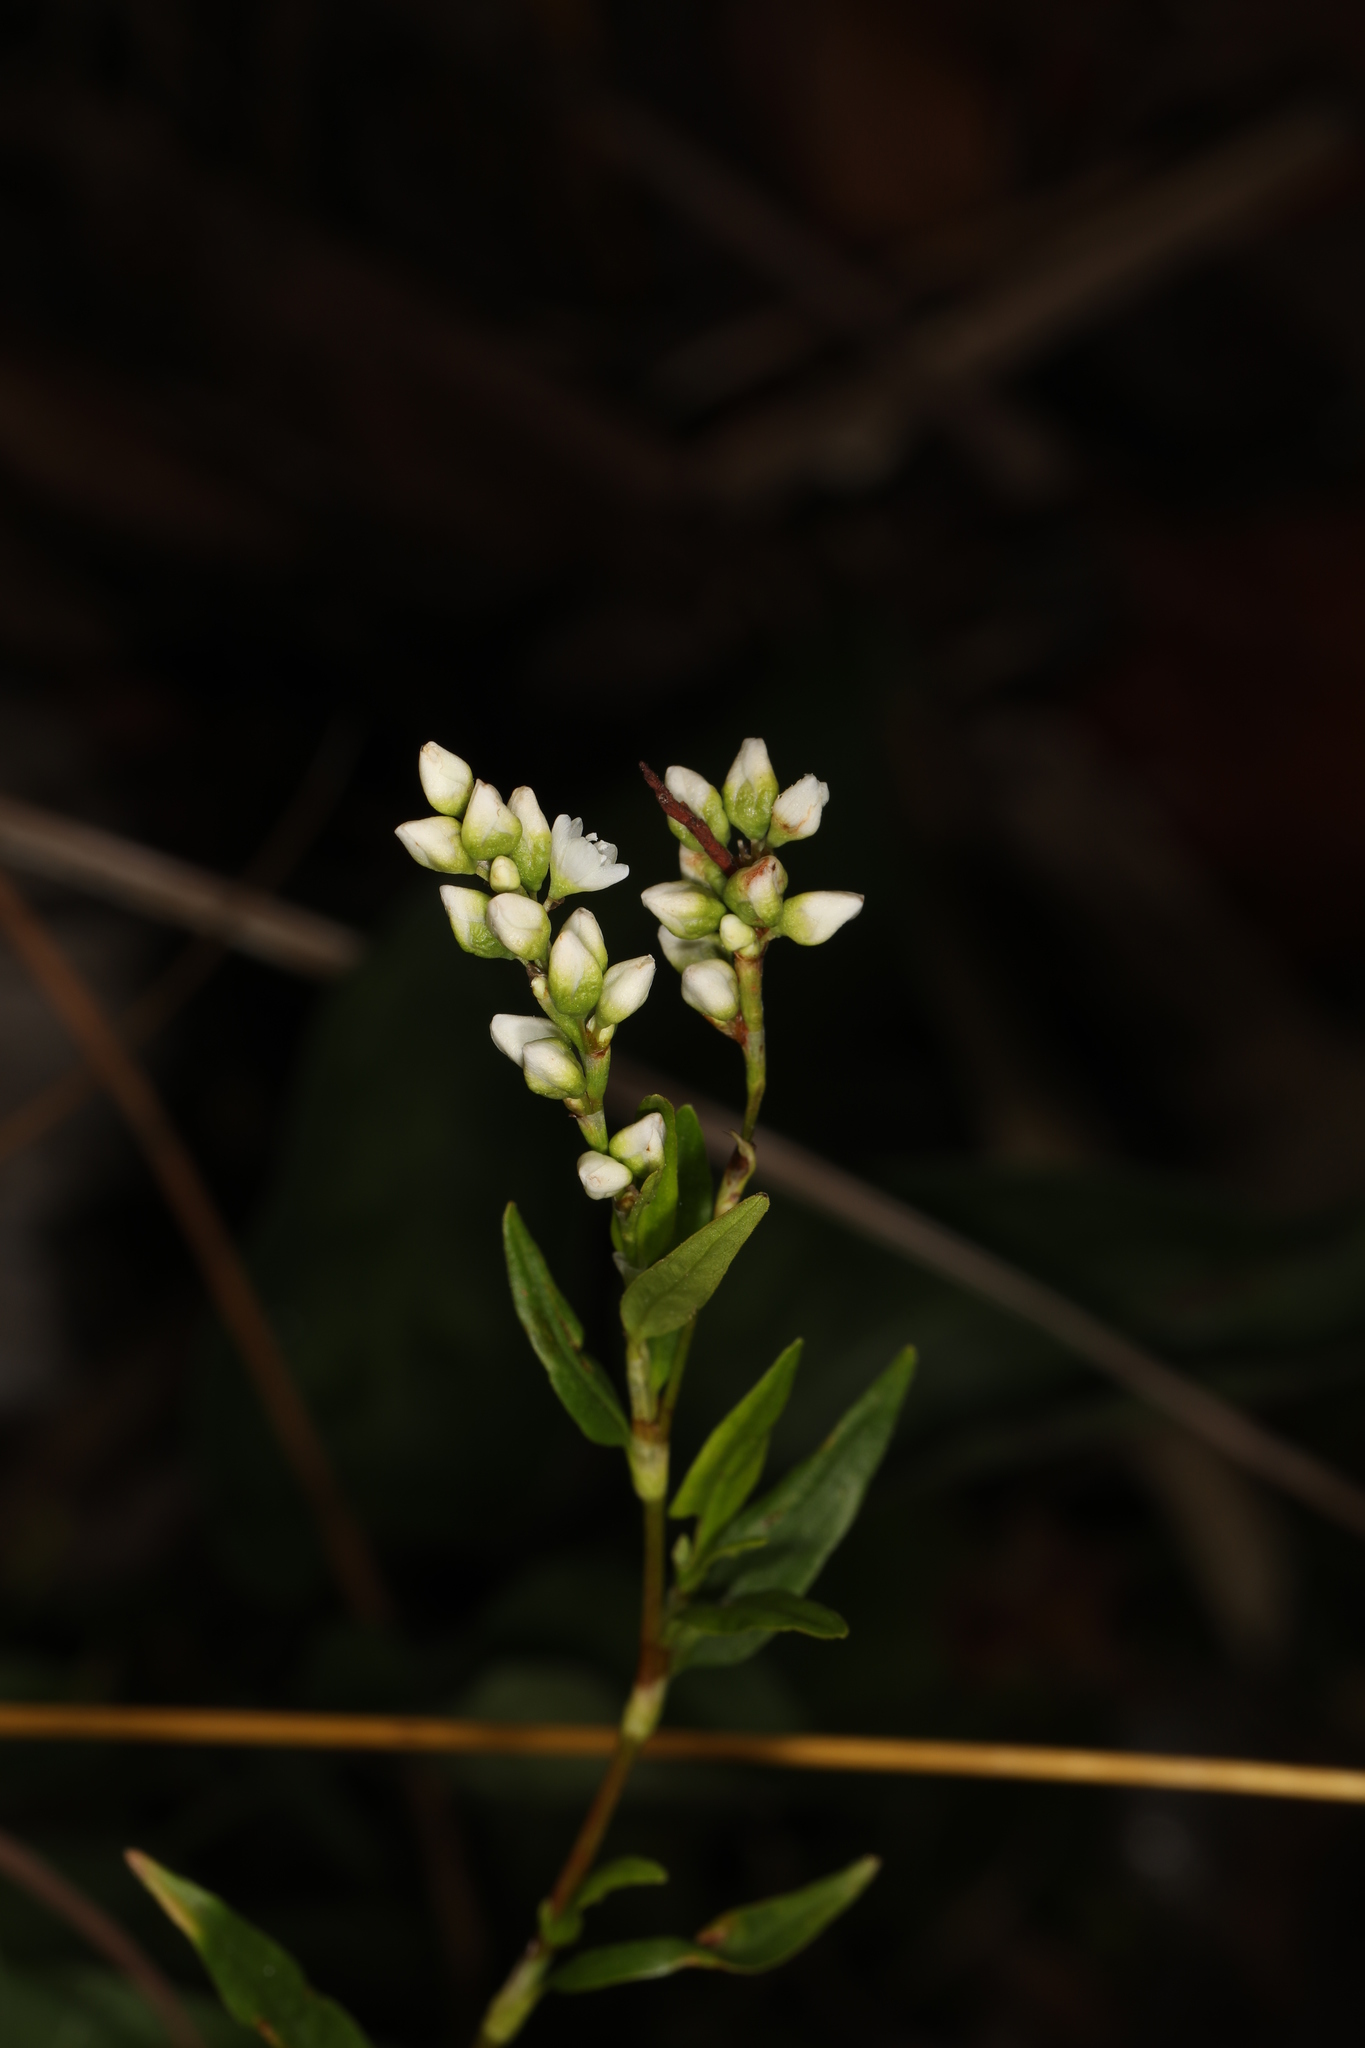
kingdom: Plantae
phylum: Tracheophyta
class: Magnoliopsida
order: Caryophyllales
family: Polygonaceae
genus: Persicaria
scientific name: Persicaria punctata
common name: Dotted smartweed
